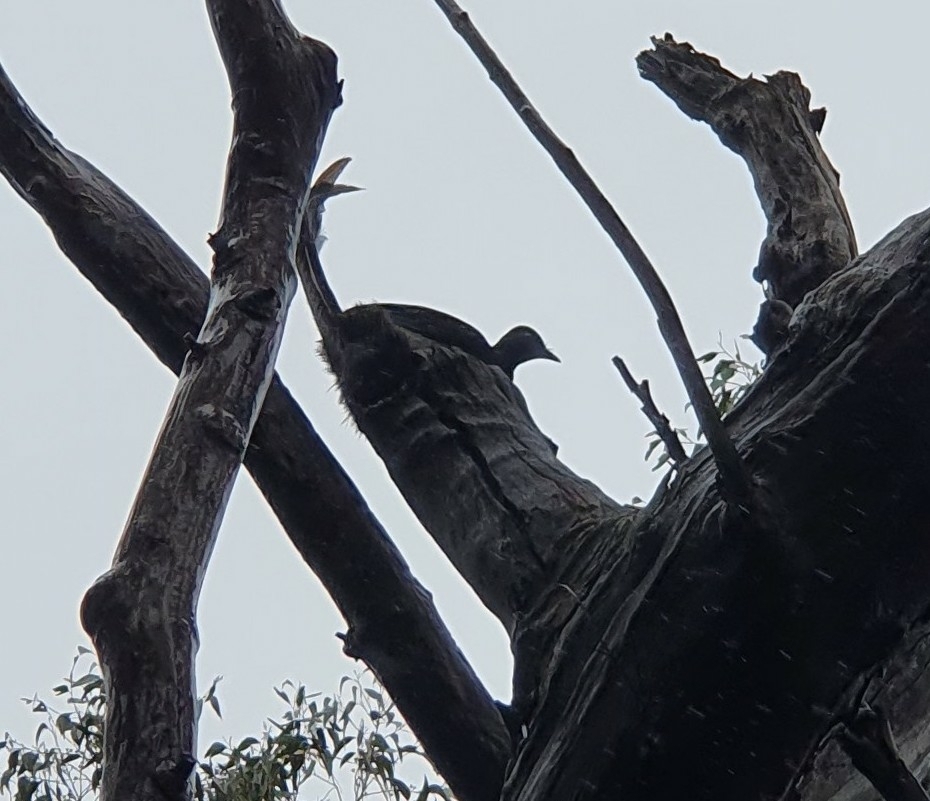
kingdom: Animalia
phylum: Chordata
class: Aves
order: Passeriformes
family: Menuridae
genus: Menura
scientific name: Menura novaehollandiae
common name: Superb lyrebird
